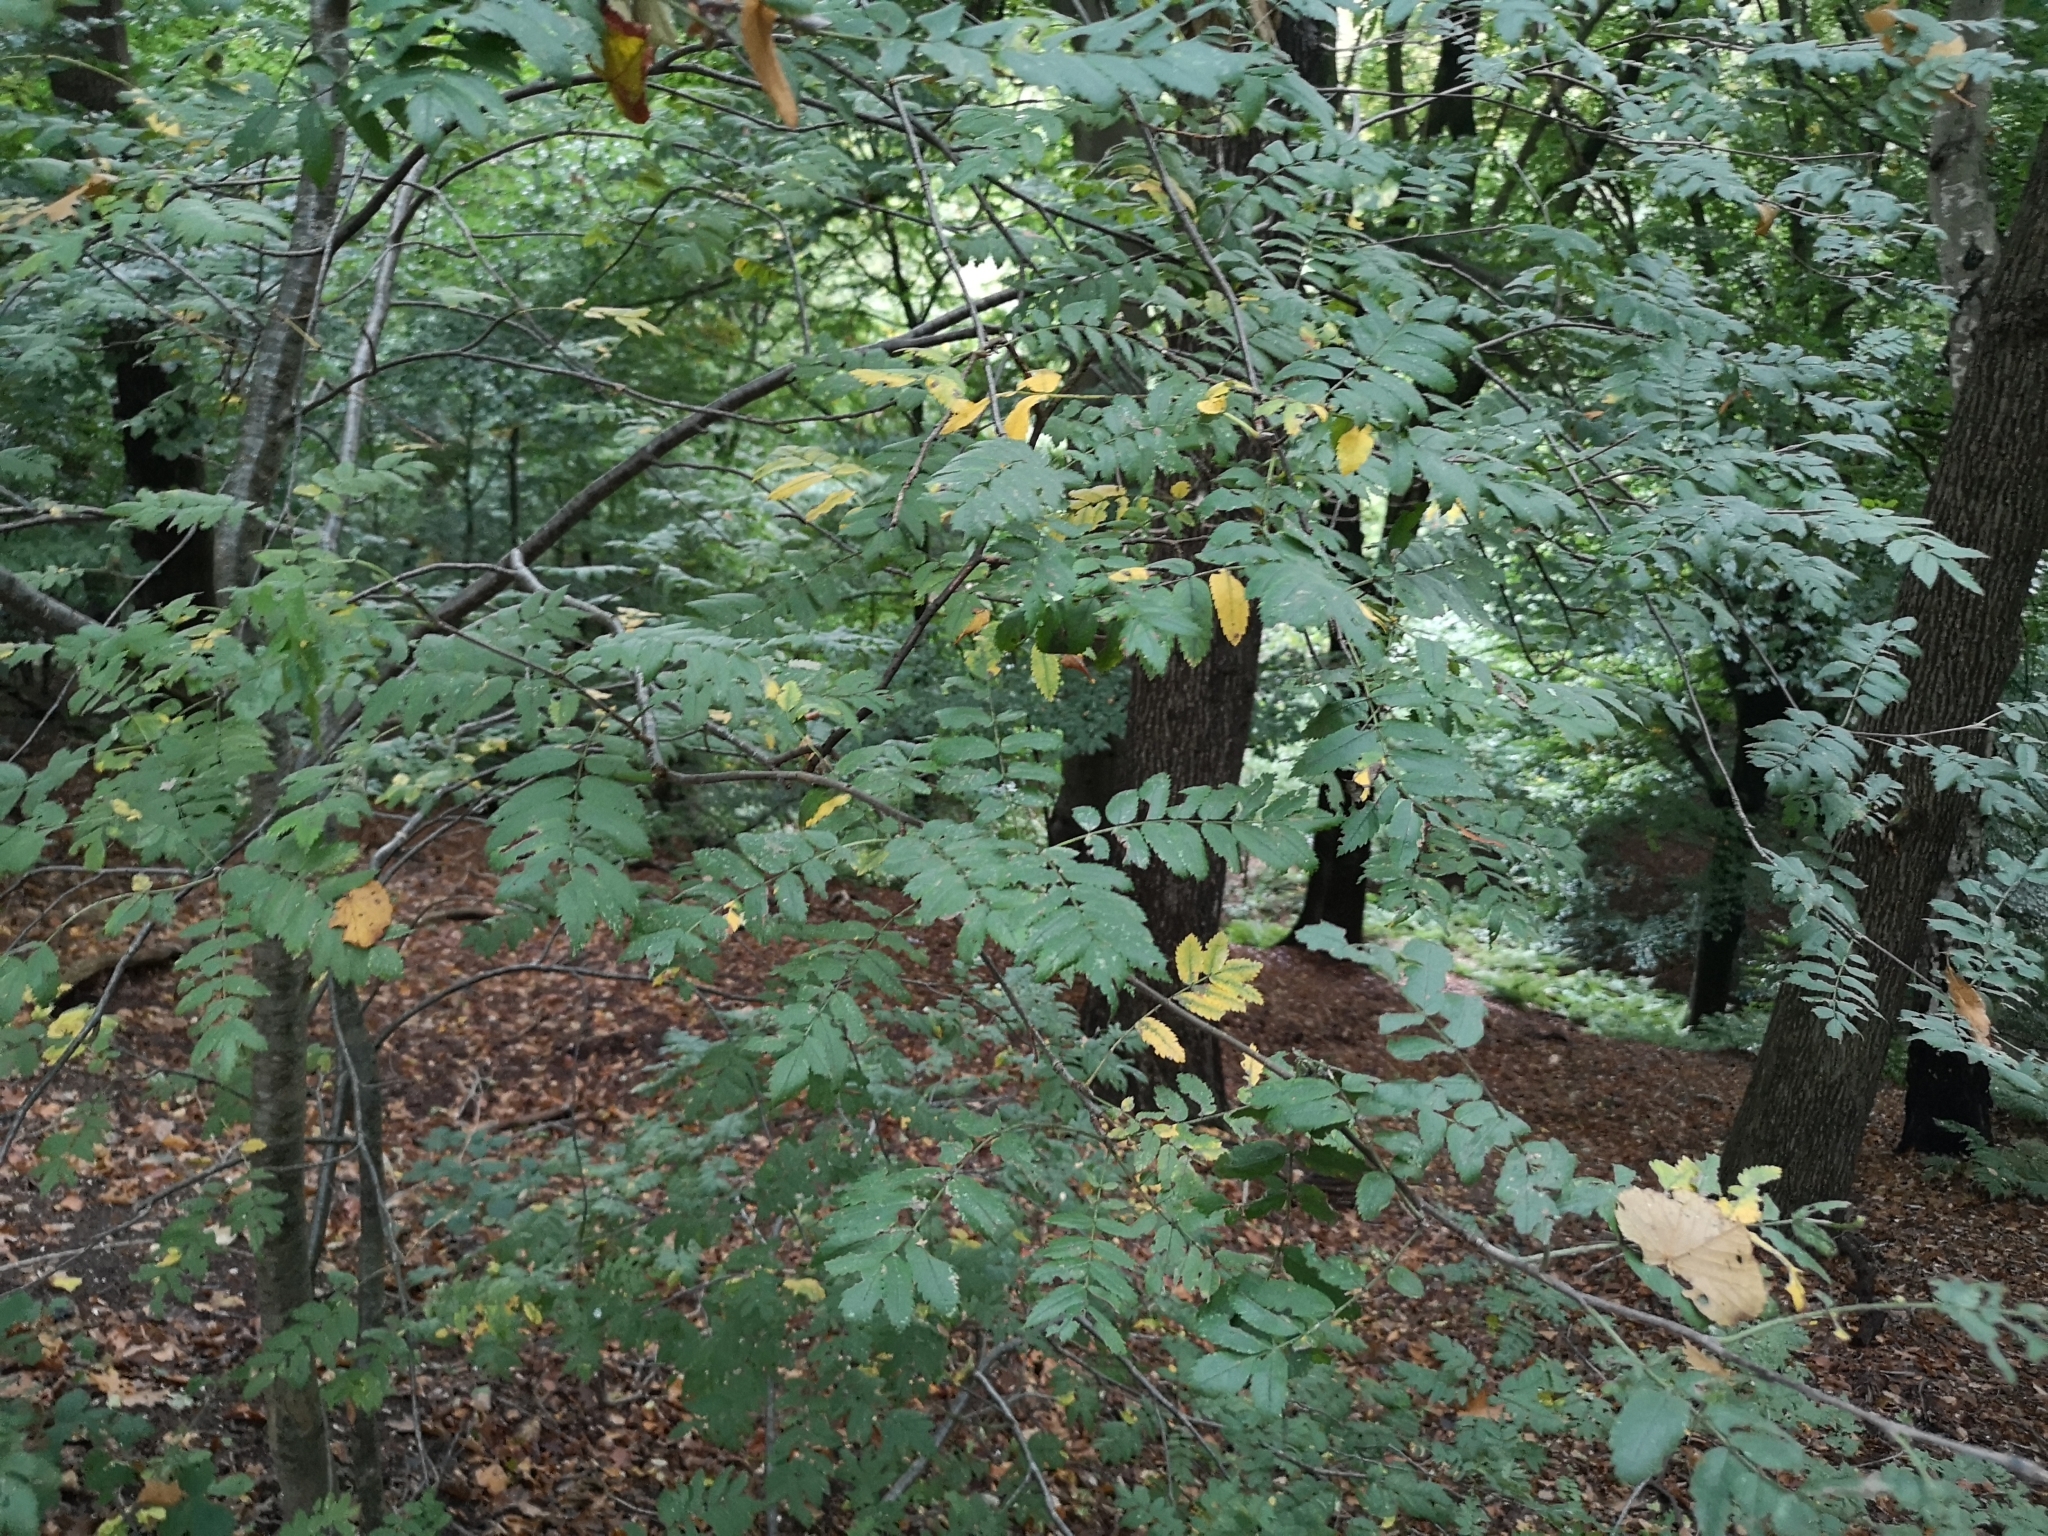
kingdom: Plantae
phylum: Tracheophyta
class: Magnoliopsida
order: Rosales
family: Rosaceae
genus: Sorbus
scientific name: Sorbus aucuparia
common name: Rowan
